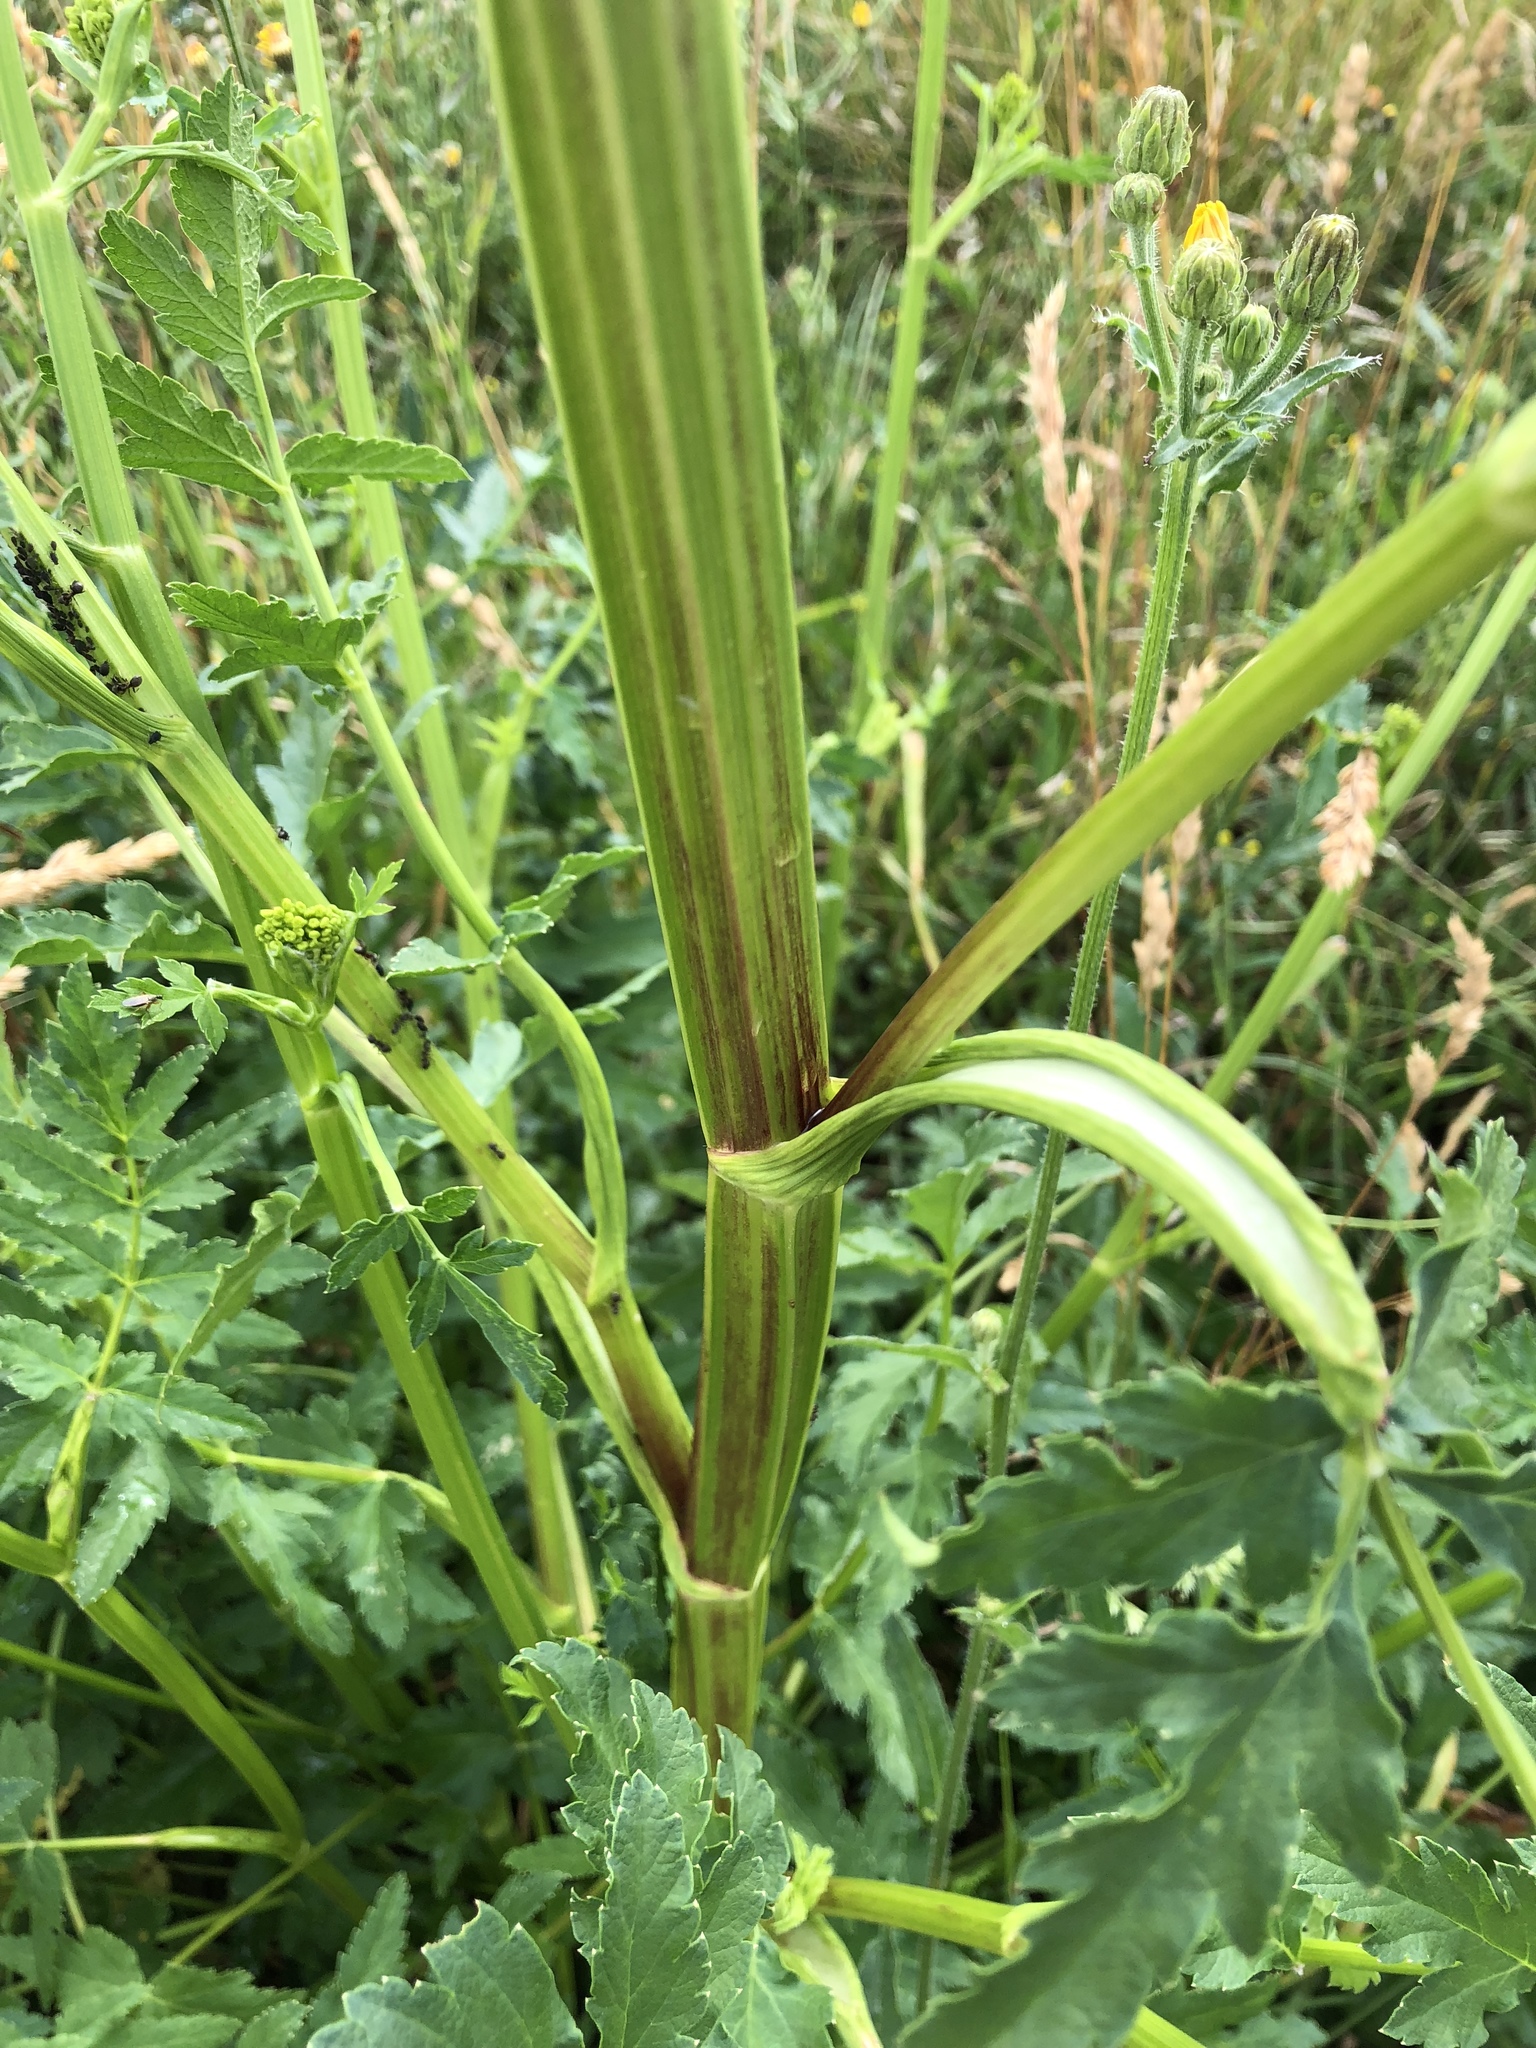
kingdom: Plantae
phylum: Tracheophyta
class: Magnoliopsida
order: Apiales
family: Apiaceae
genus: Pastinaca
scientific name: Pastinaca sativa
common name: Wild parsnip
